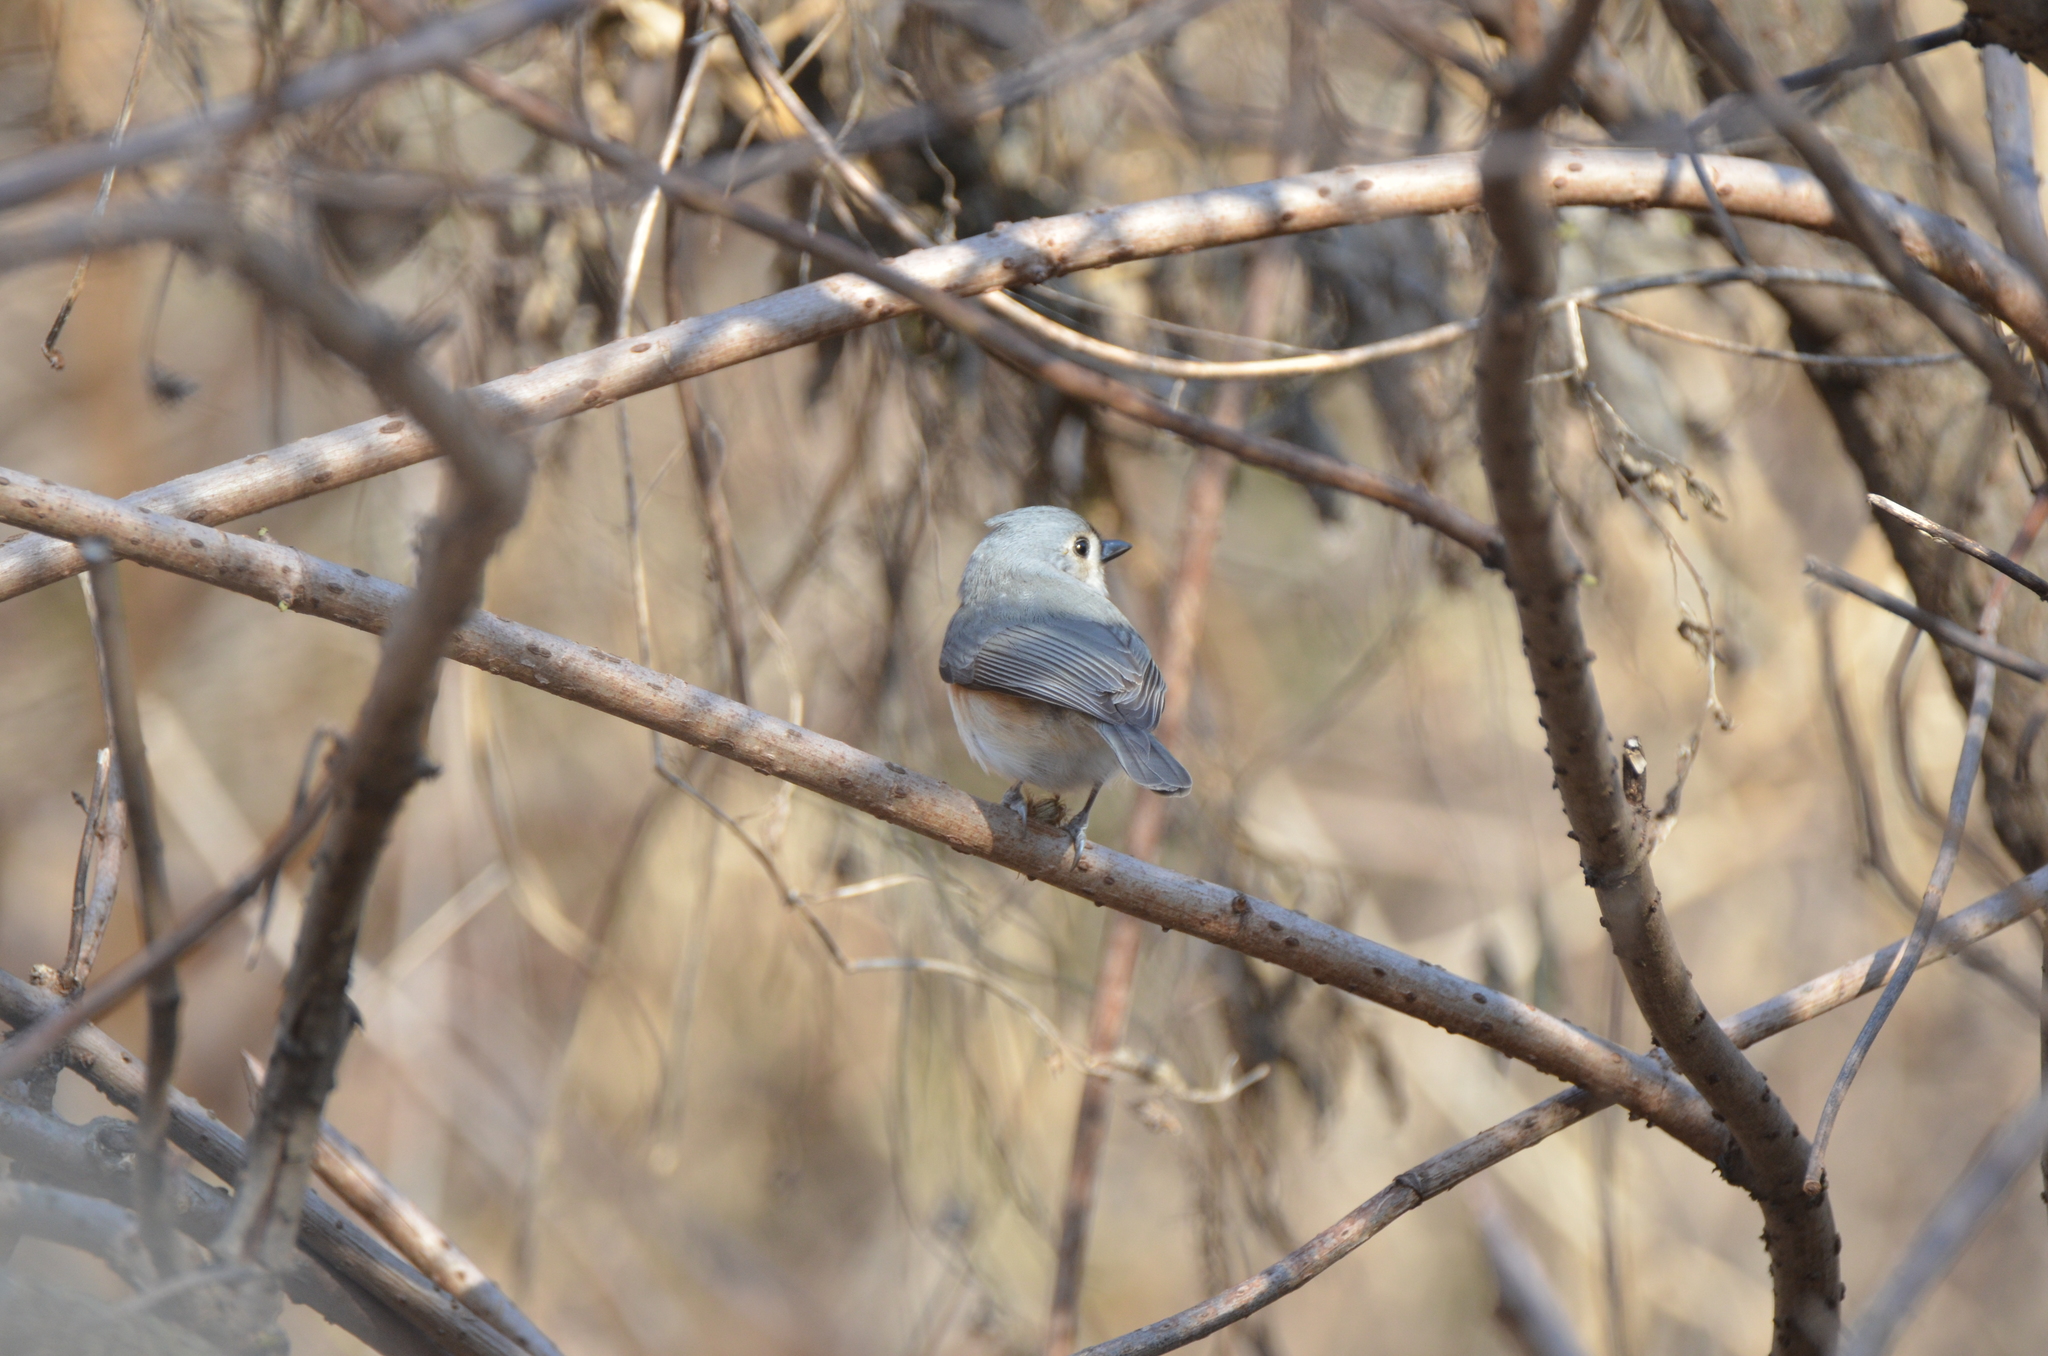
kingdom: Animalia
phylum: Chordata
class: Aves
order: Passeriformes
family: Paridae
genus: Baeolophus
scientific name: Baeolophus bicolor
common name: Tufted titmouse
